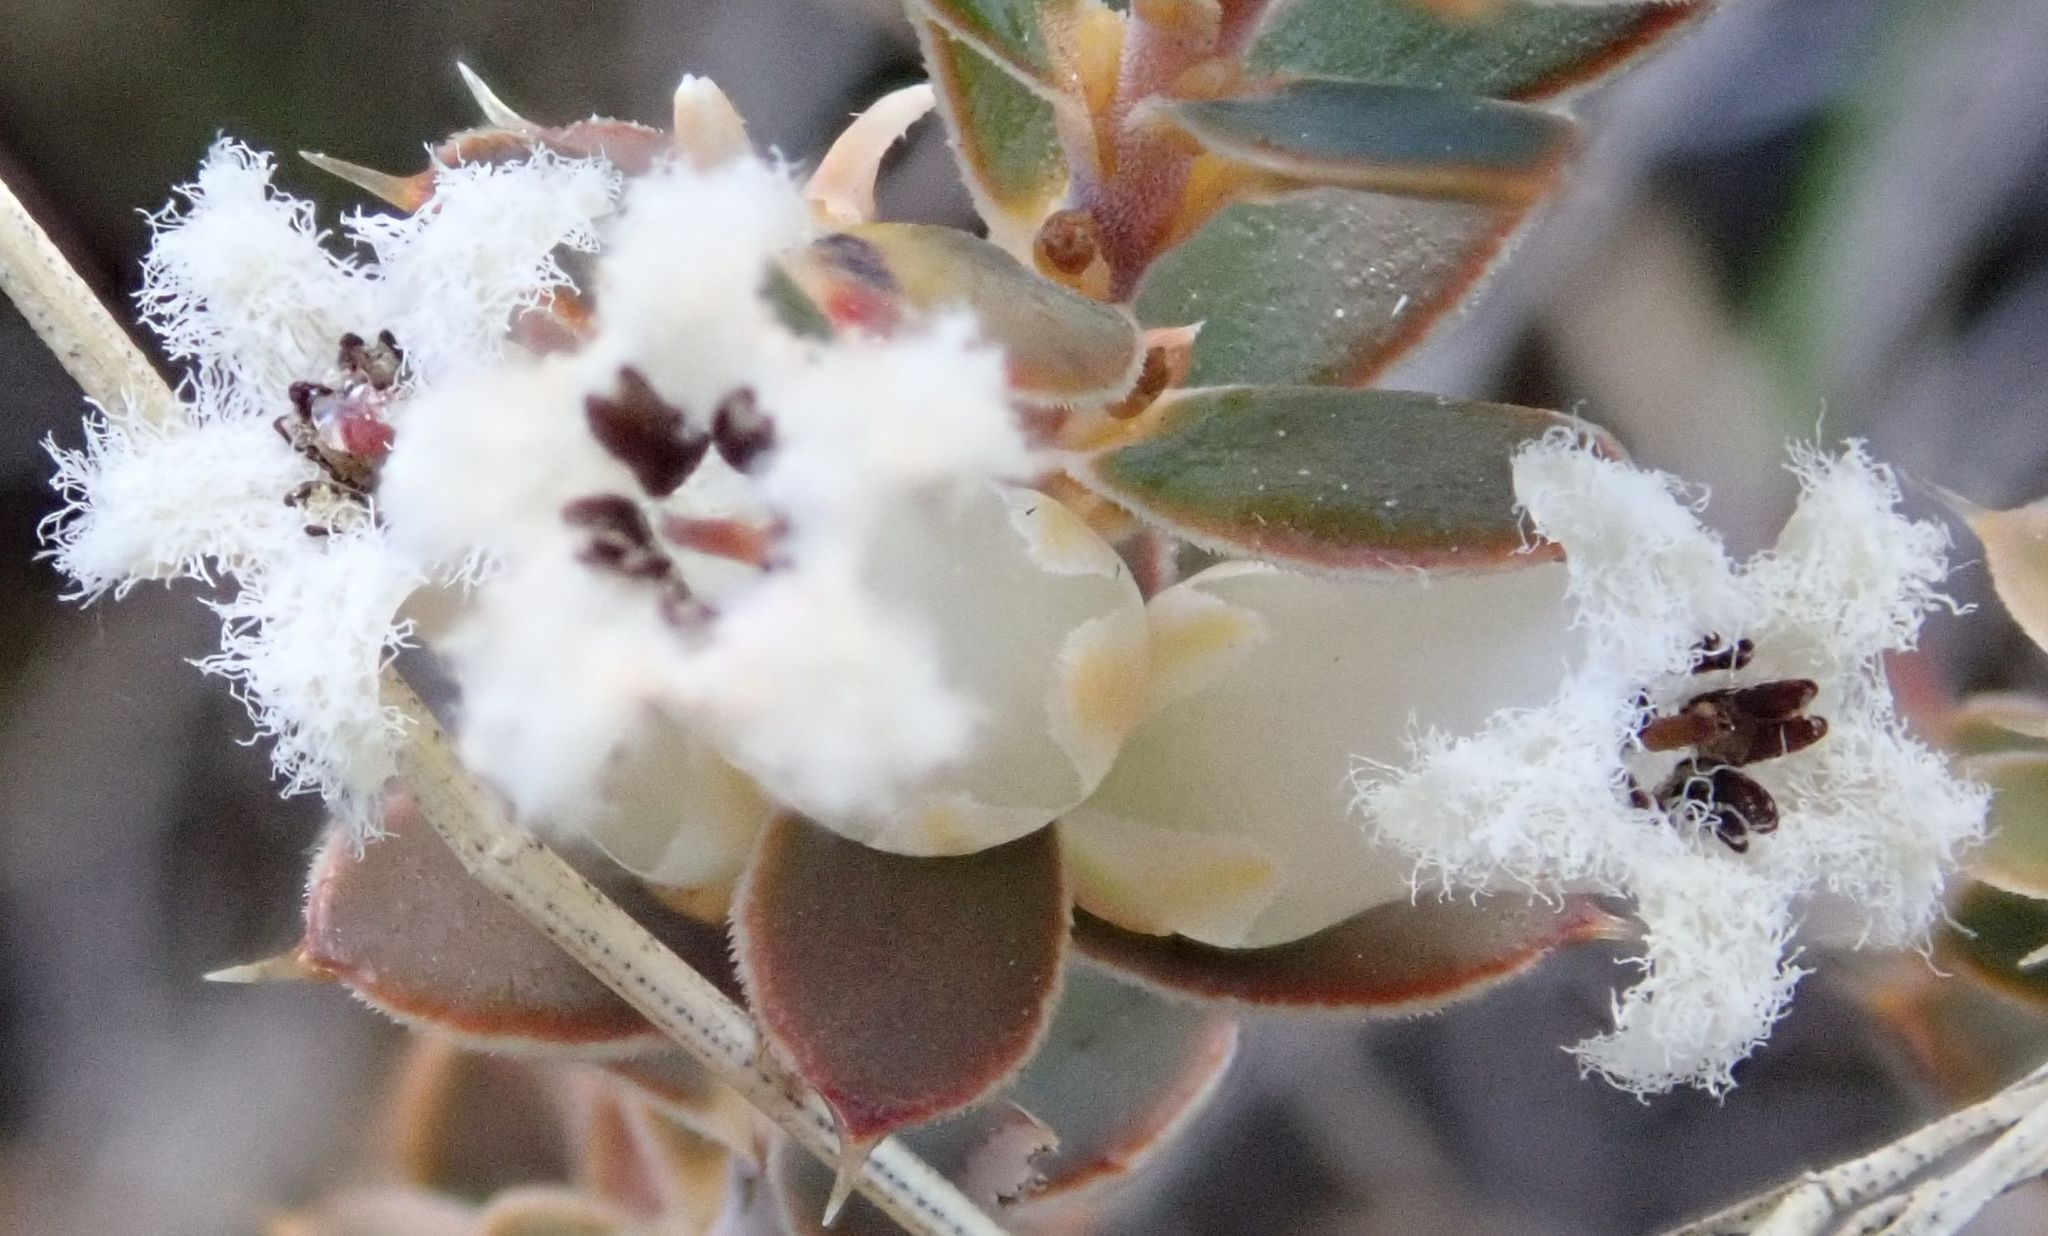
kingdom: Plantae
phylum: Tracheophyta
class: Magnoliopsida
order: Ericales
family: Ericaceae
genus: Styphelia
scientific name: Styphelia nesophila
